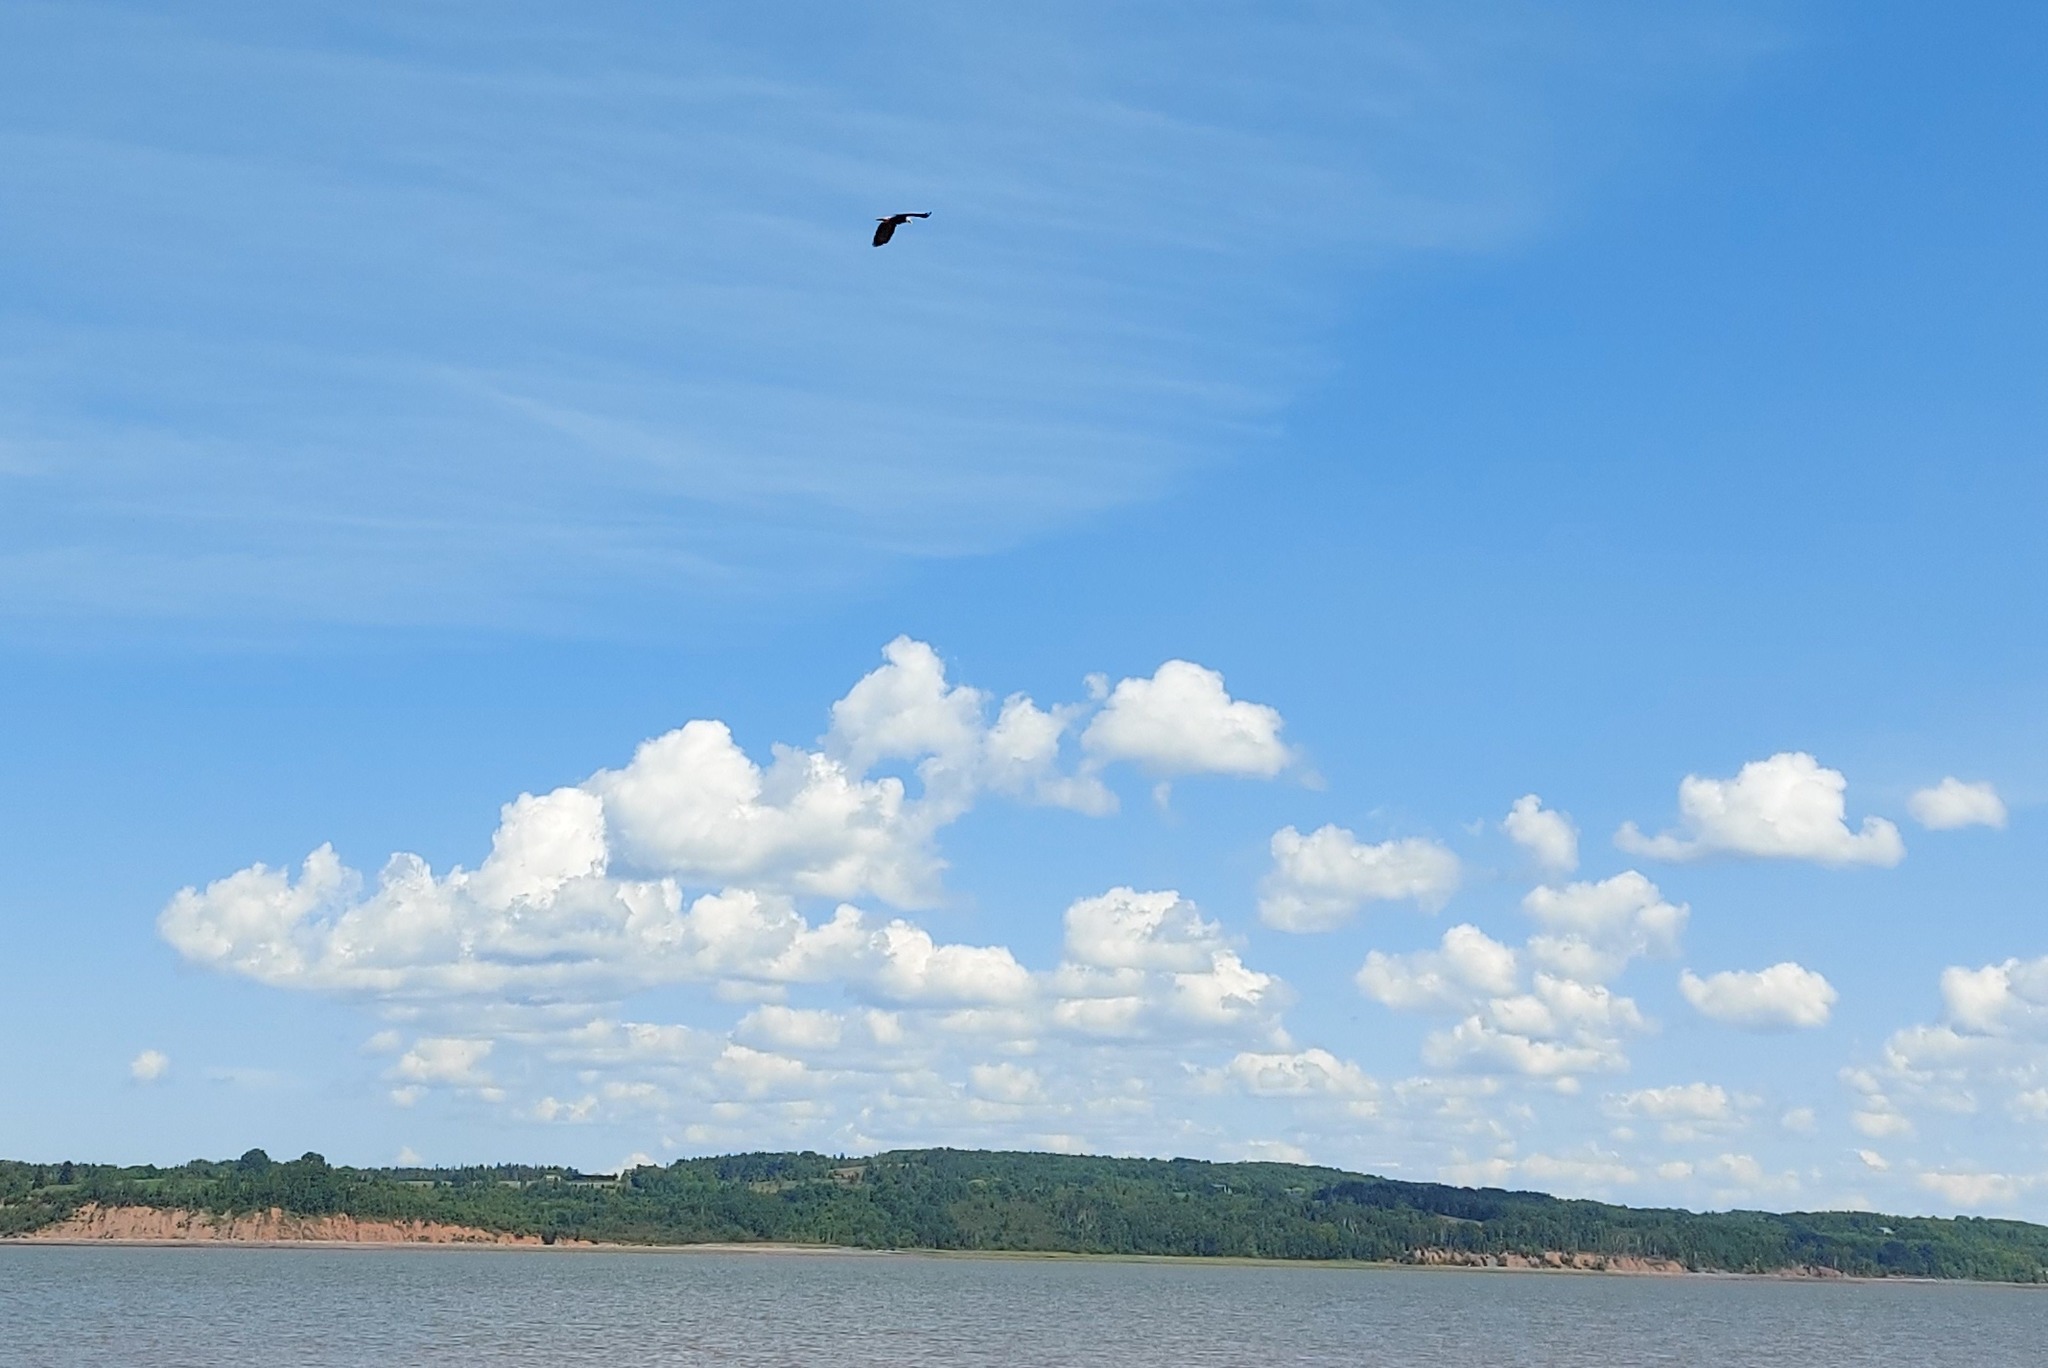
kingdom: Animalia
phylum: Chordata
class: Aves
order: Accipitriformes
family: Accipitridae
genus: Haliaeetus
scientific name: Haliaeetus leucocephalus
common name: Bald eagle
